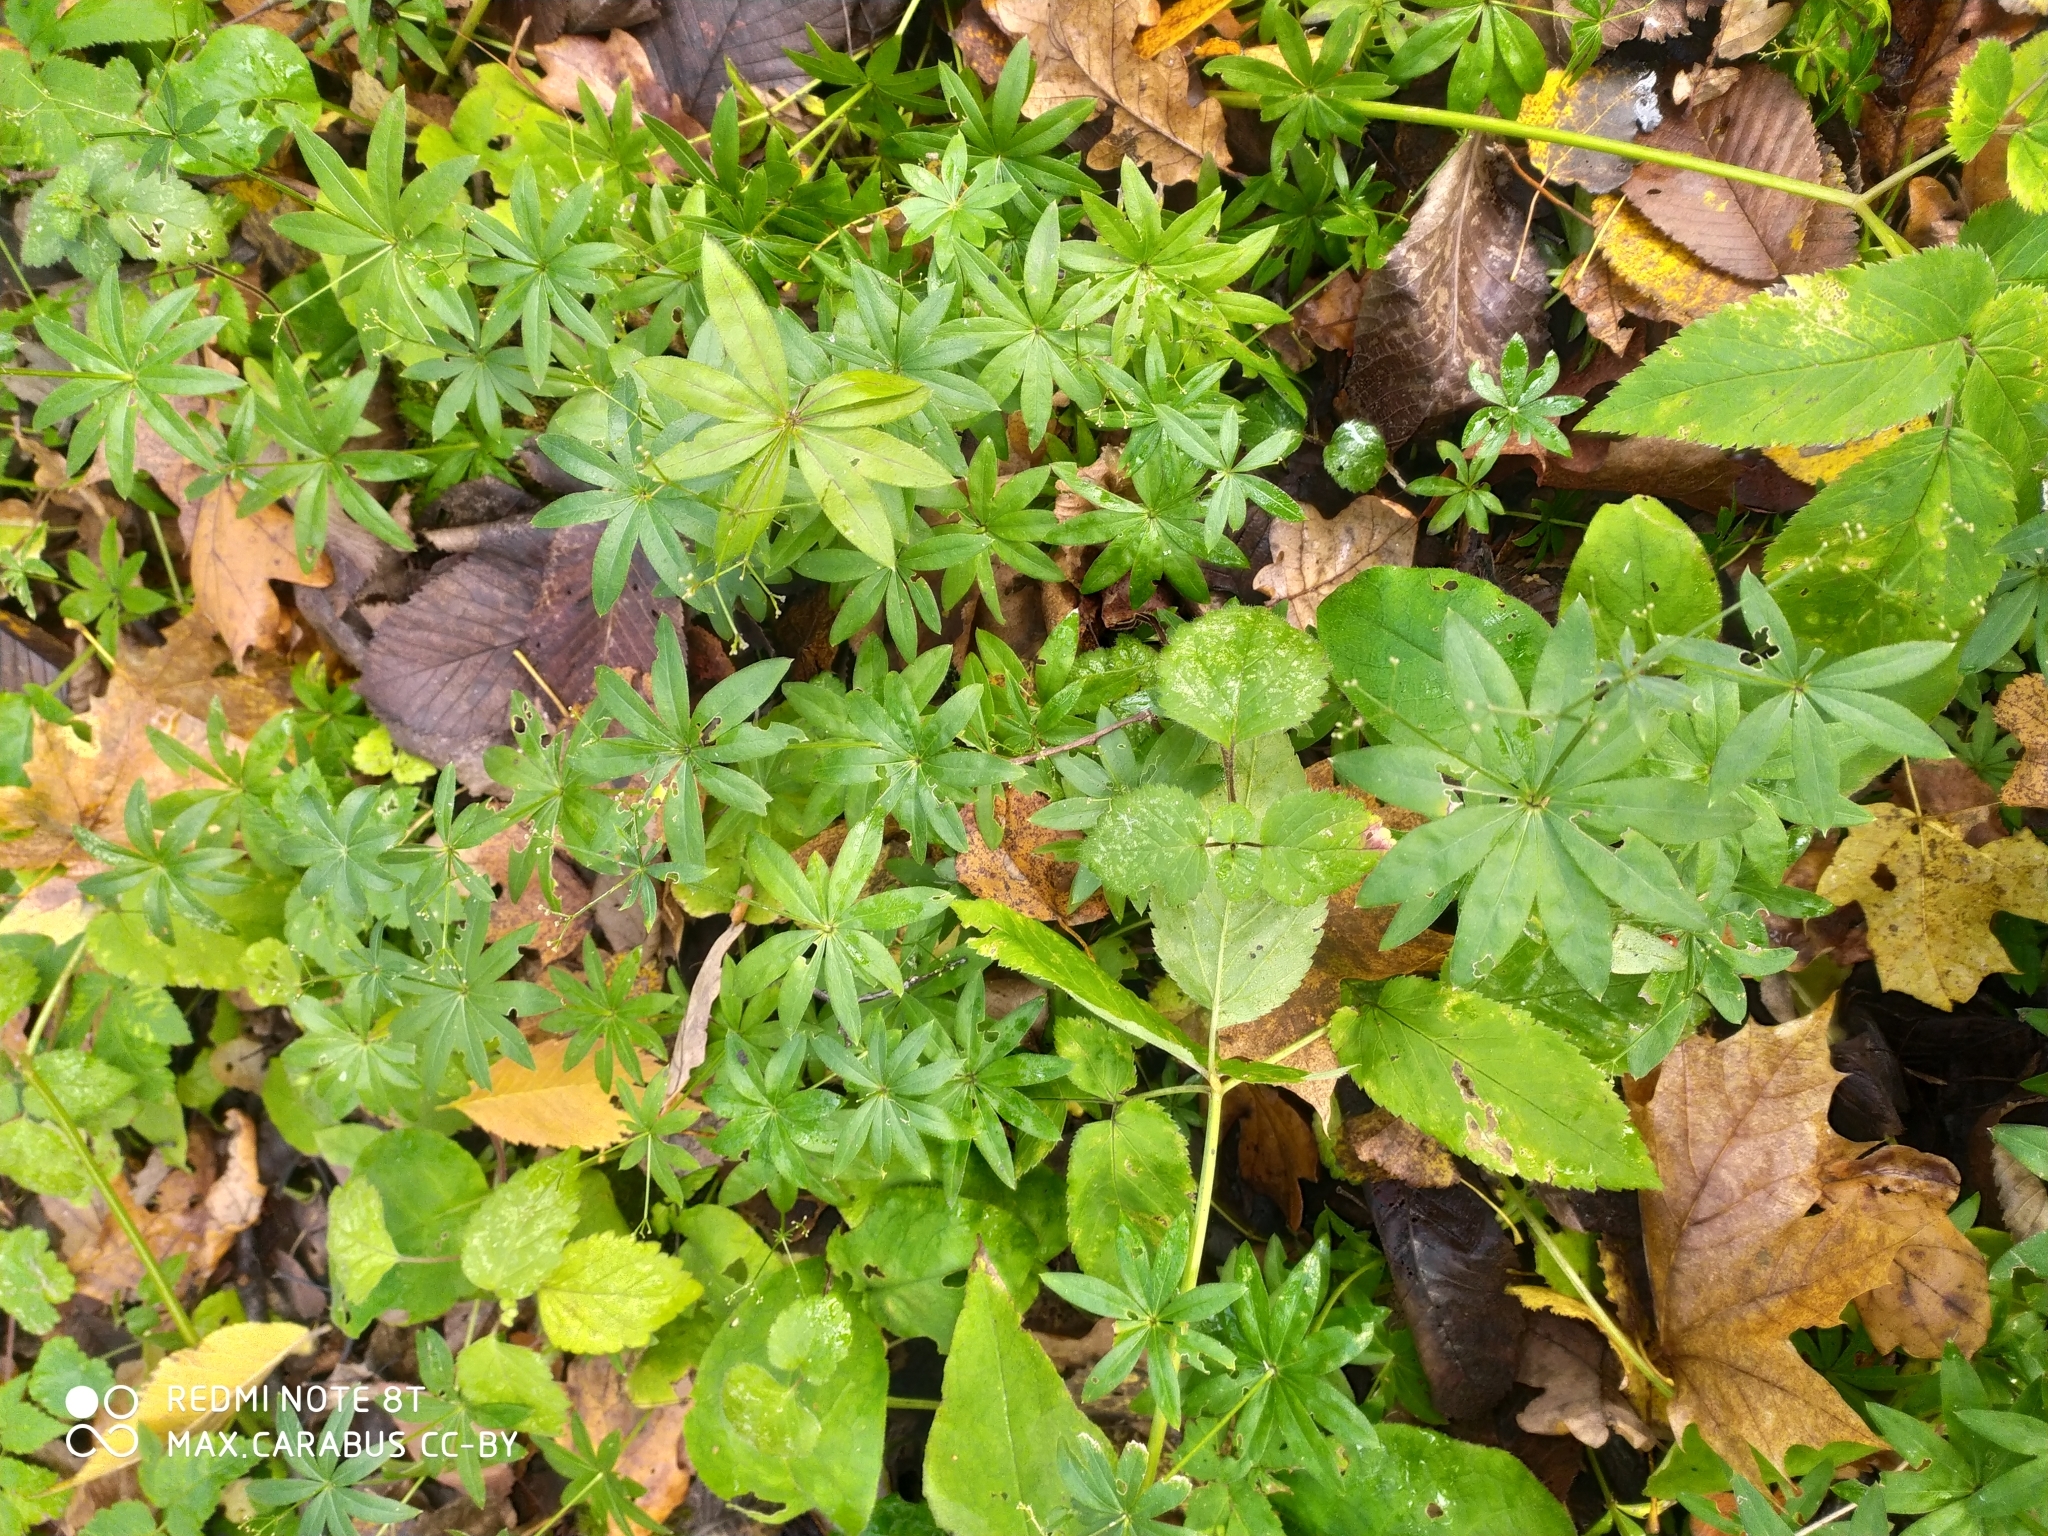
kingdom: Plantae
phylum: Tracheophyta
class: Magnoliopsida
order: Gentianales
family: Rubiaceae
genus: Galium
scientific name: Galium odoratum
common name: Sweet woodruff
